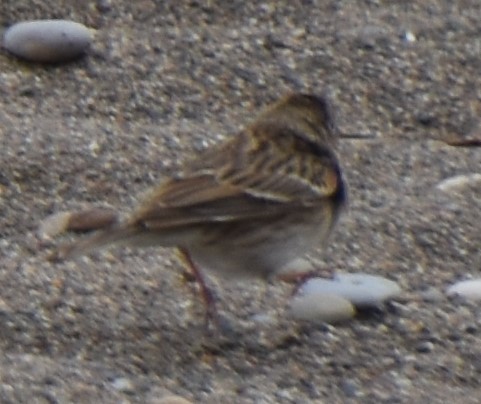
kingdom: Animalia
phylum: Chordata
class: Aves
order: Passeriformes
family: Passerellidae
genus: Pooecetes
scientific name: Pooecetes gramineus
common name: Vesper sparrow
